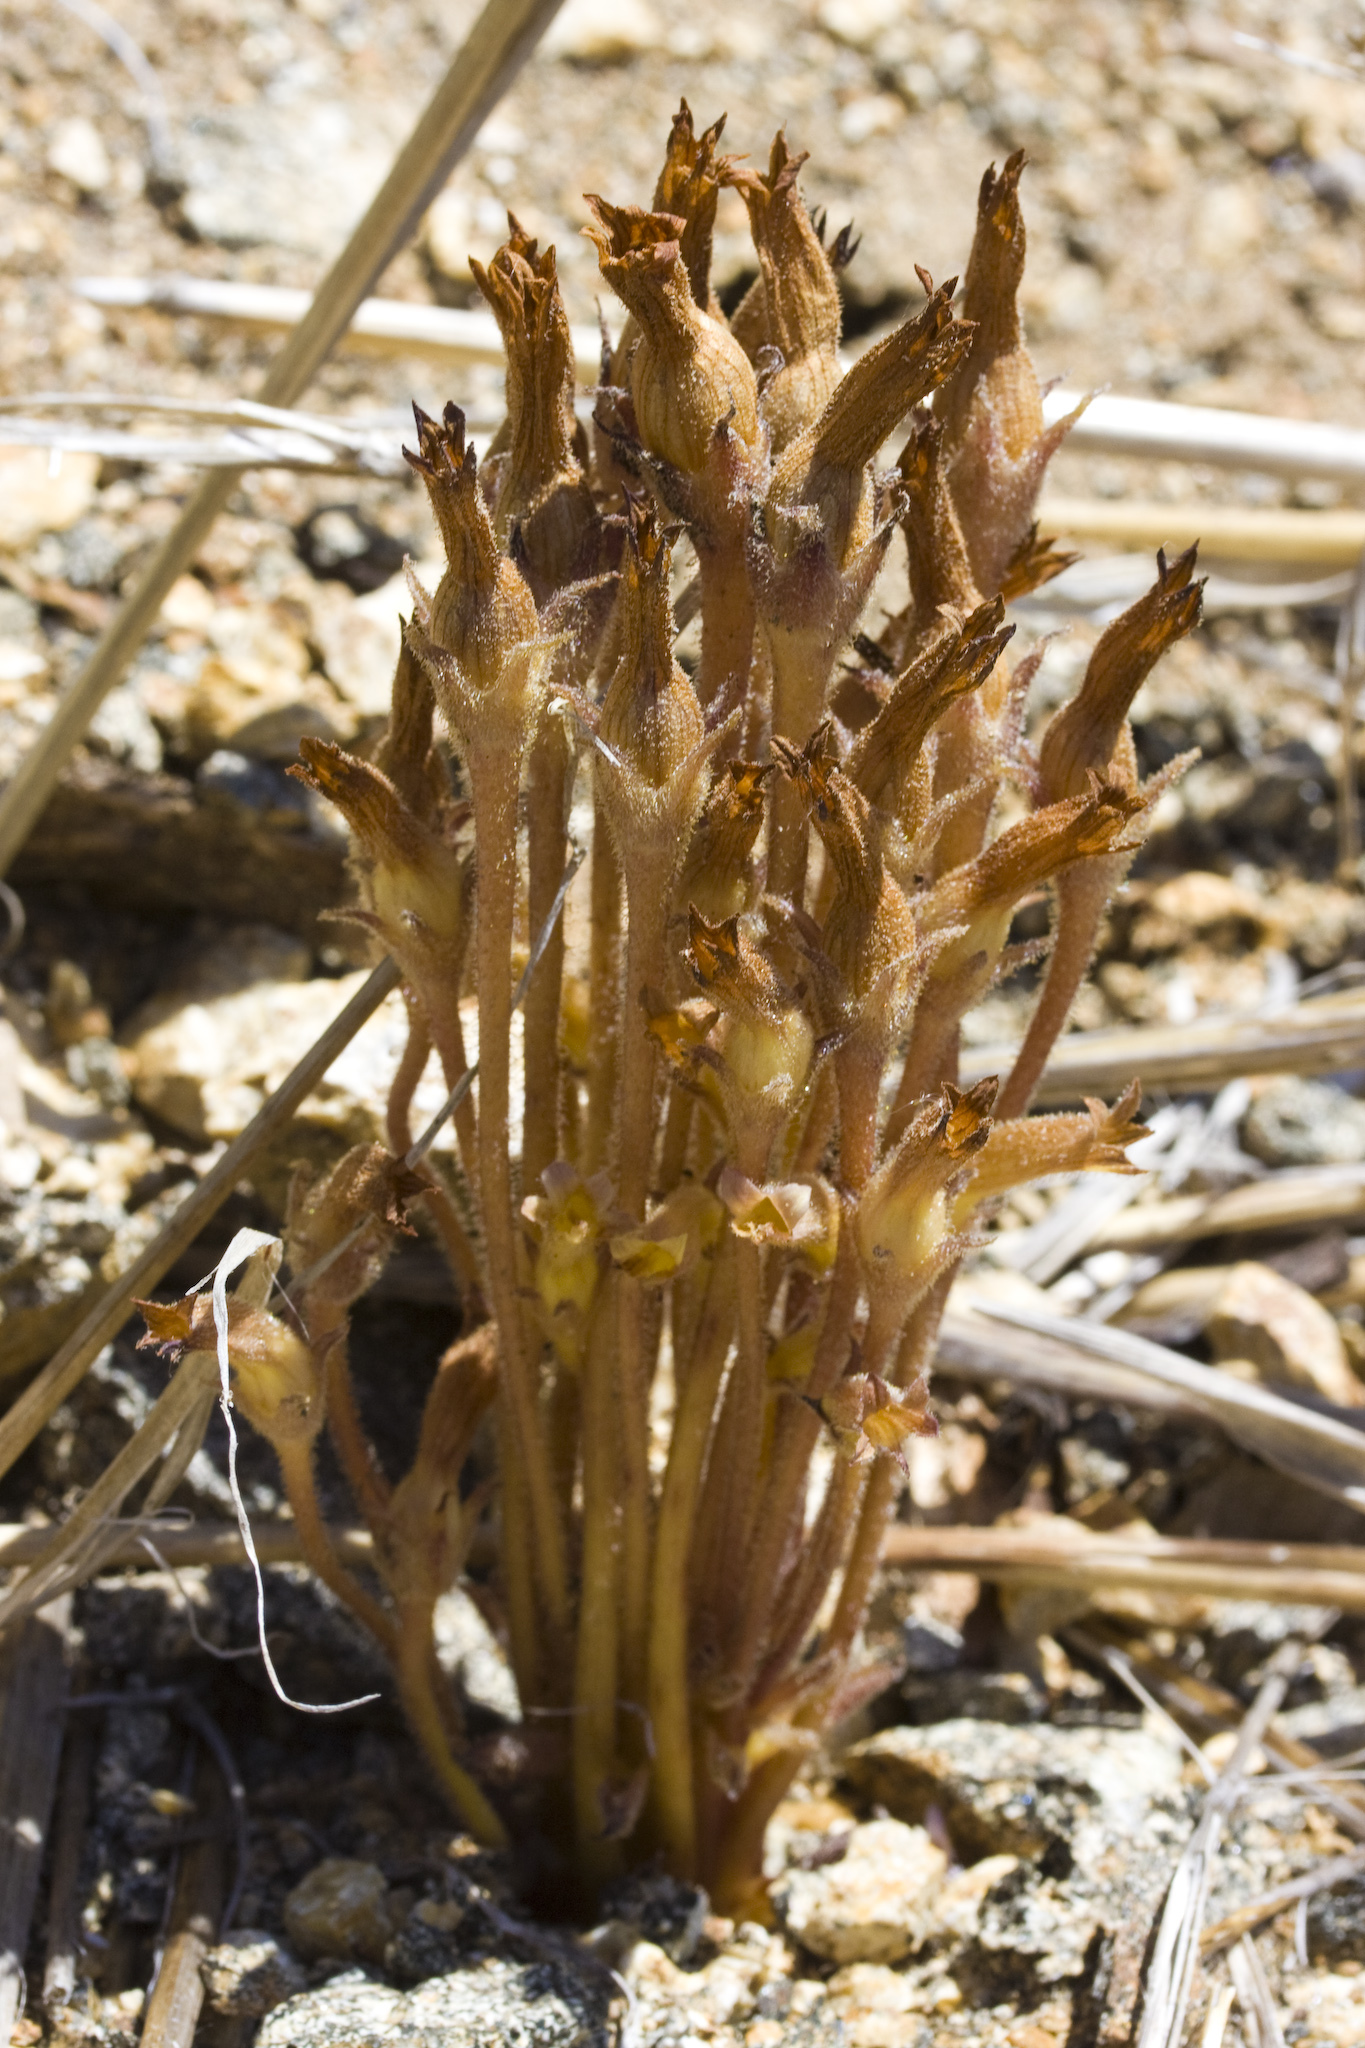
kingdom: Plantae
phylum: Tracheophyta
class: Magnoliopsida
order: Lamiales
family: Orobanchaceae
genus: Aphyllon
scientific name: Aphyllon franciscanum
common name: San francisco broomrape
